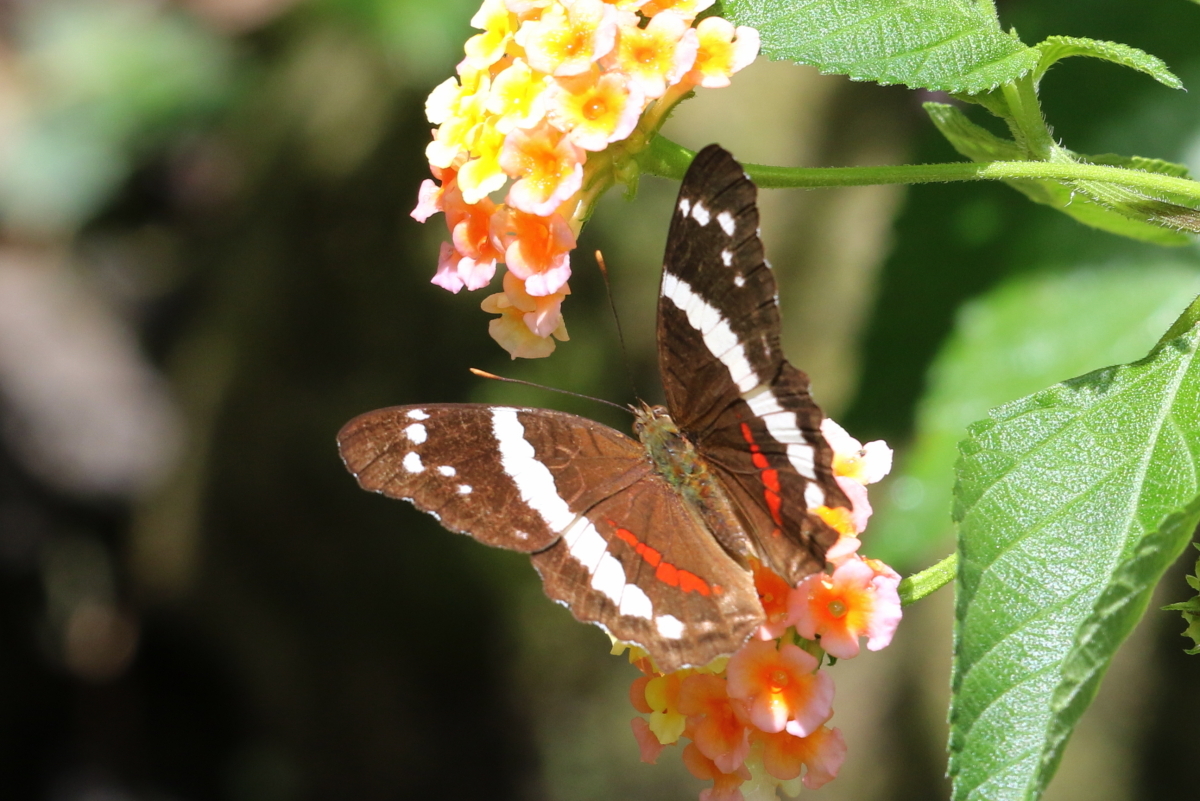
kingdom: Animalia
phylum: Arthropoda
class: Insecta
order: Lepidoptera
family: Nymphalidae
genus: Anartia
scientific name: Anartia fatima
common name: Banded peacock
